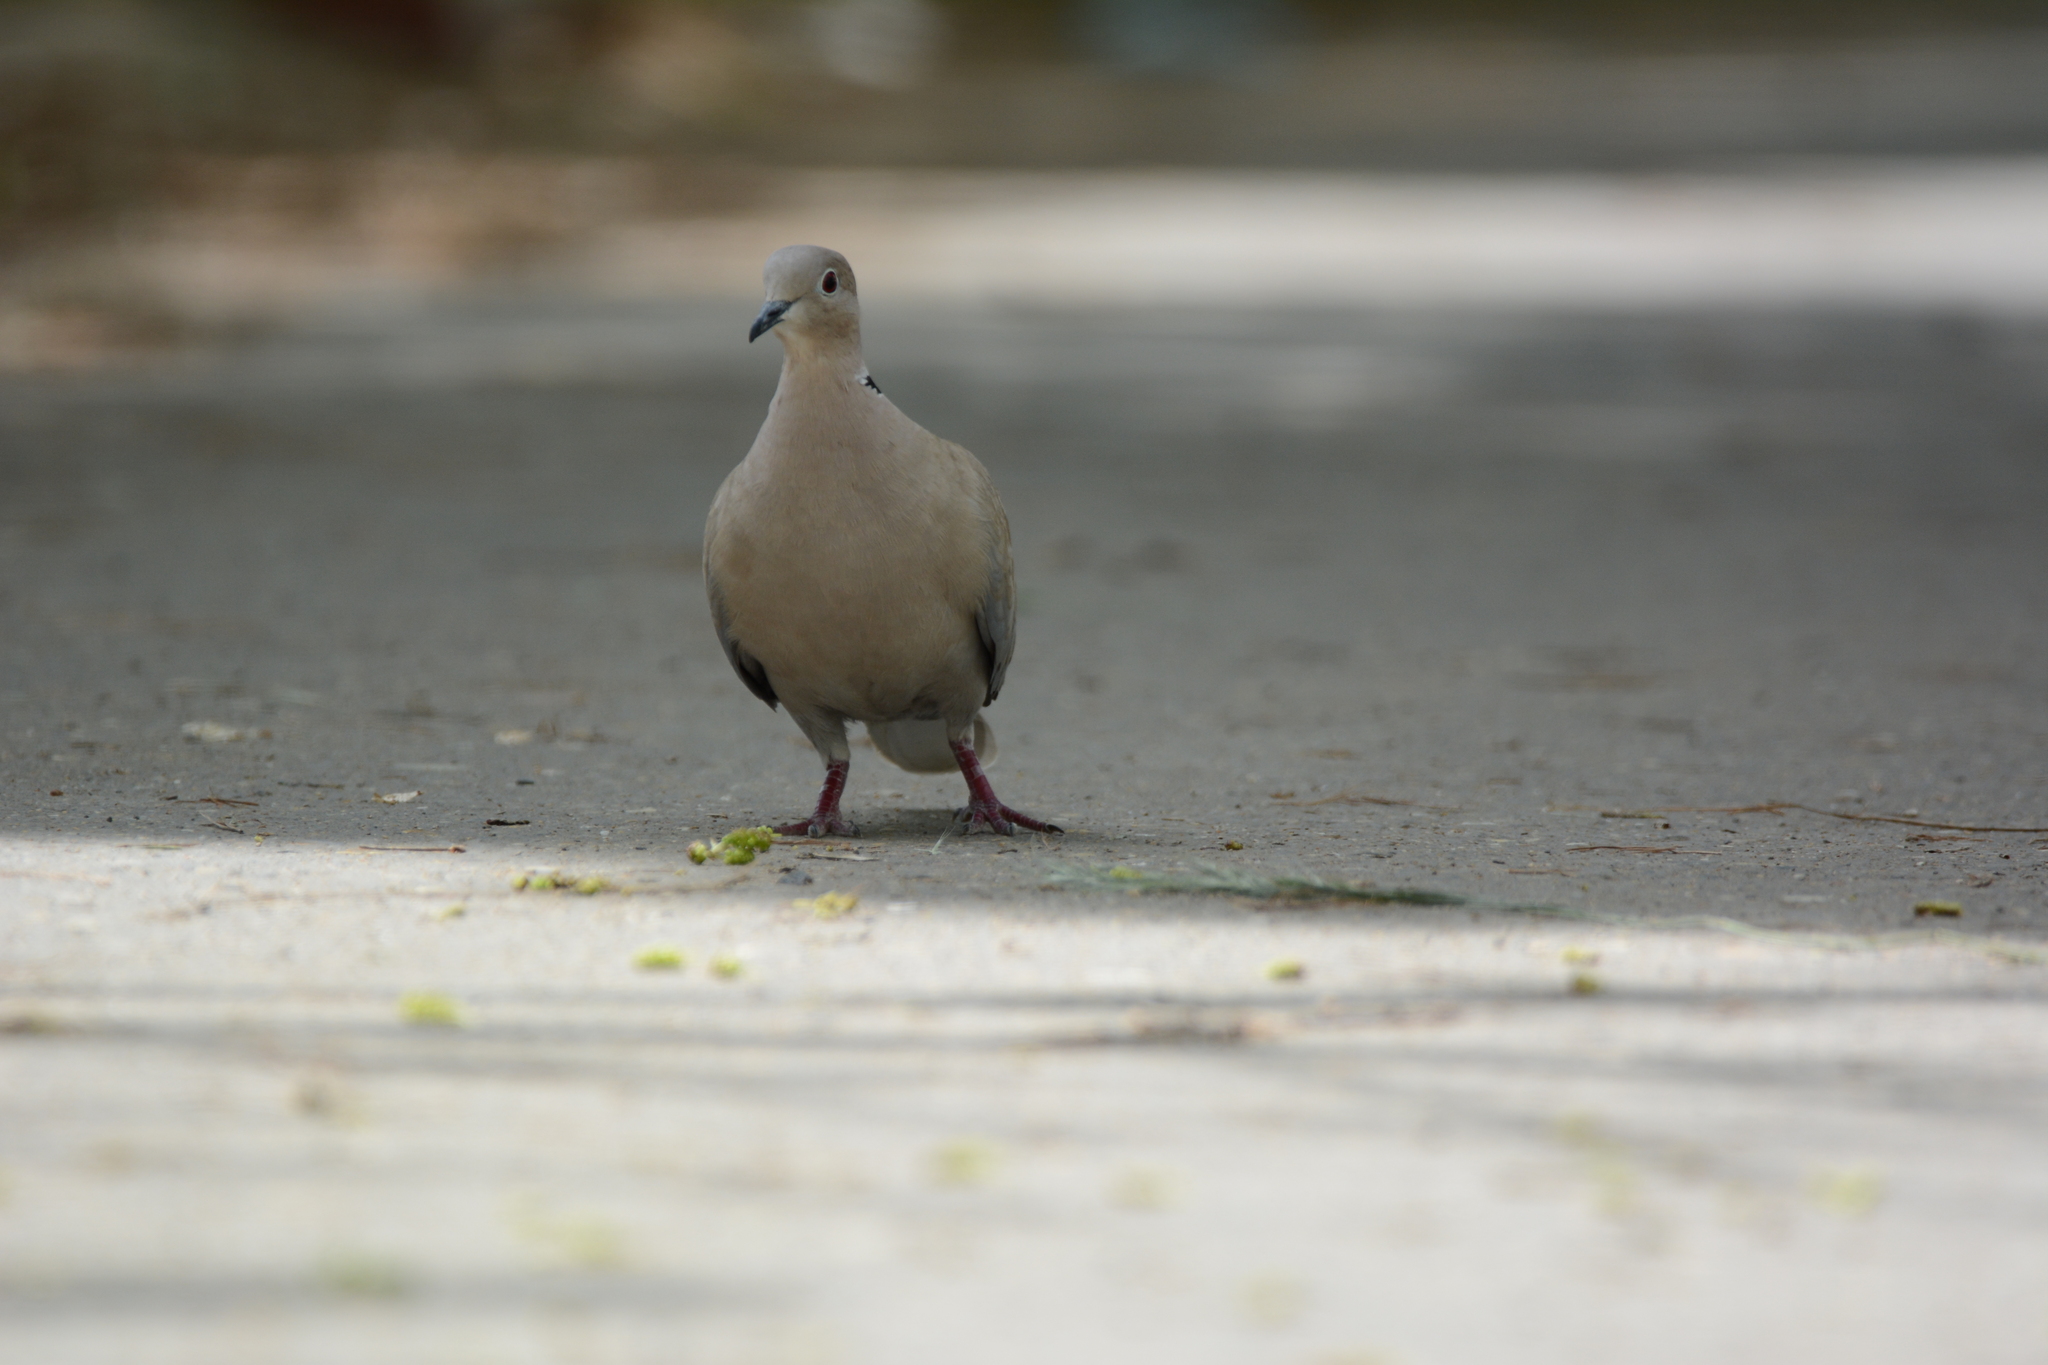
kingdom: Animalia
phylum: Chordata
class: Aves
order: Columbiformes
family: Columbidae
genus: Streptopelia
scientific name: Streptopelia decaocto
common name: Eurasian collared dove
